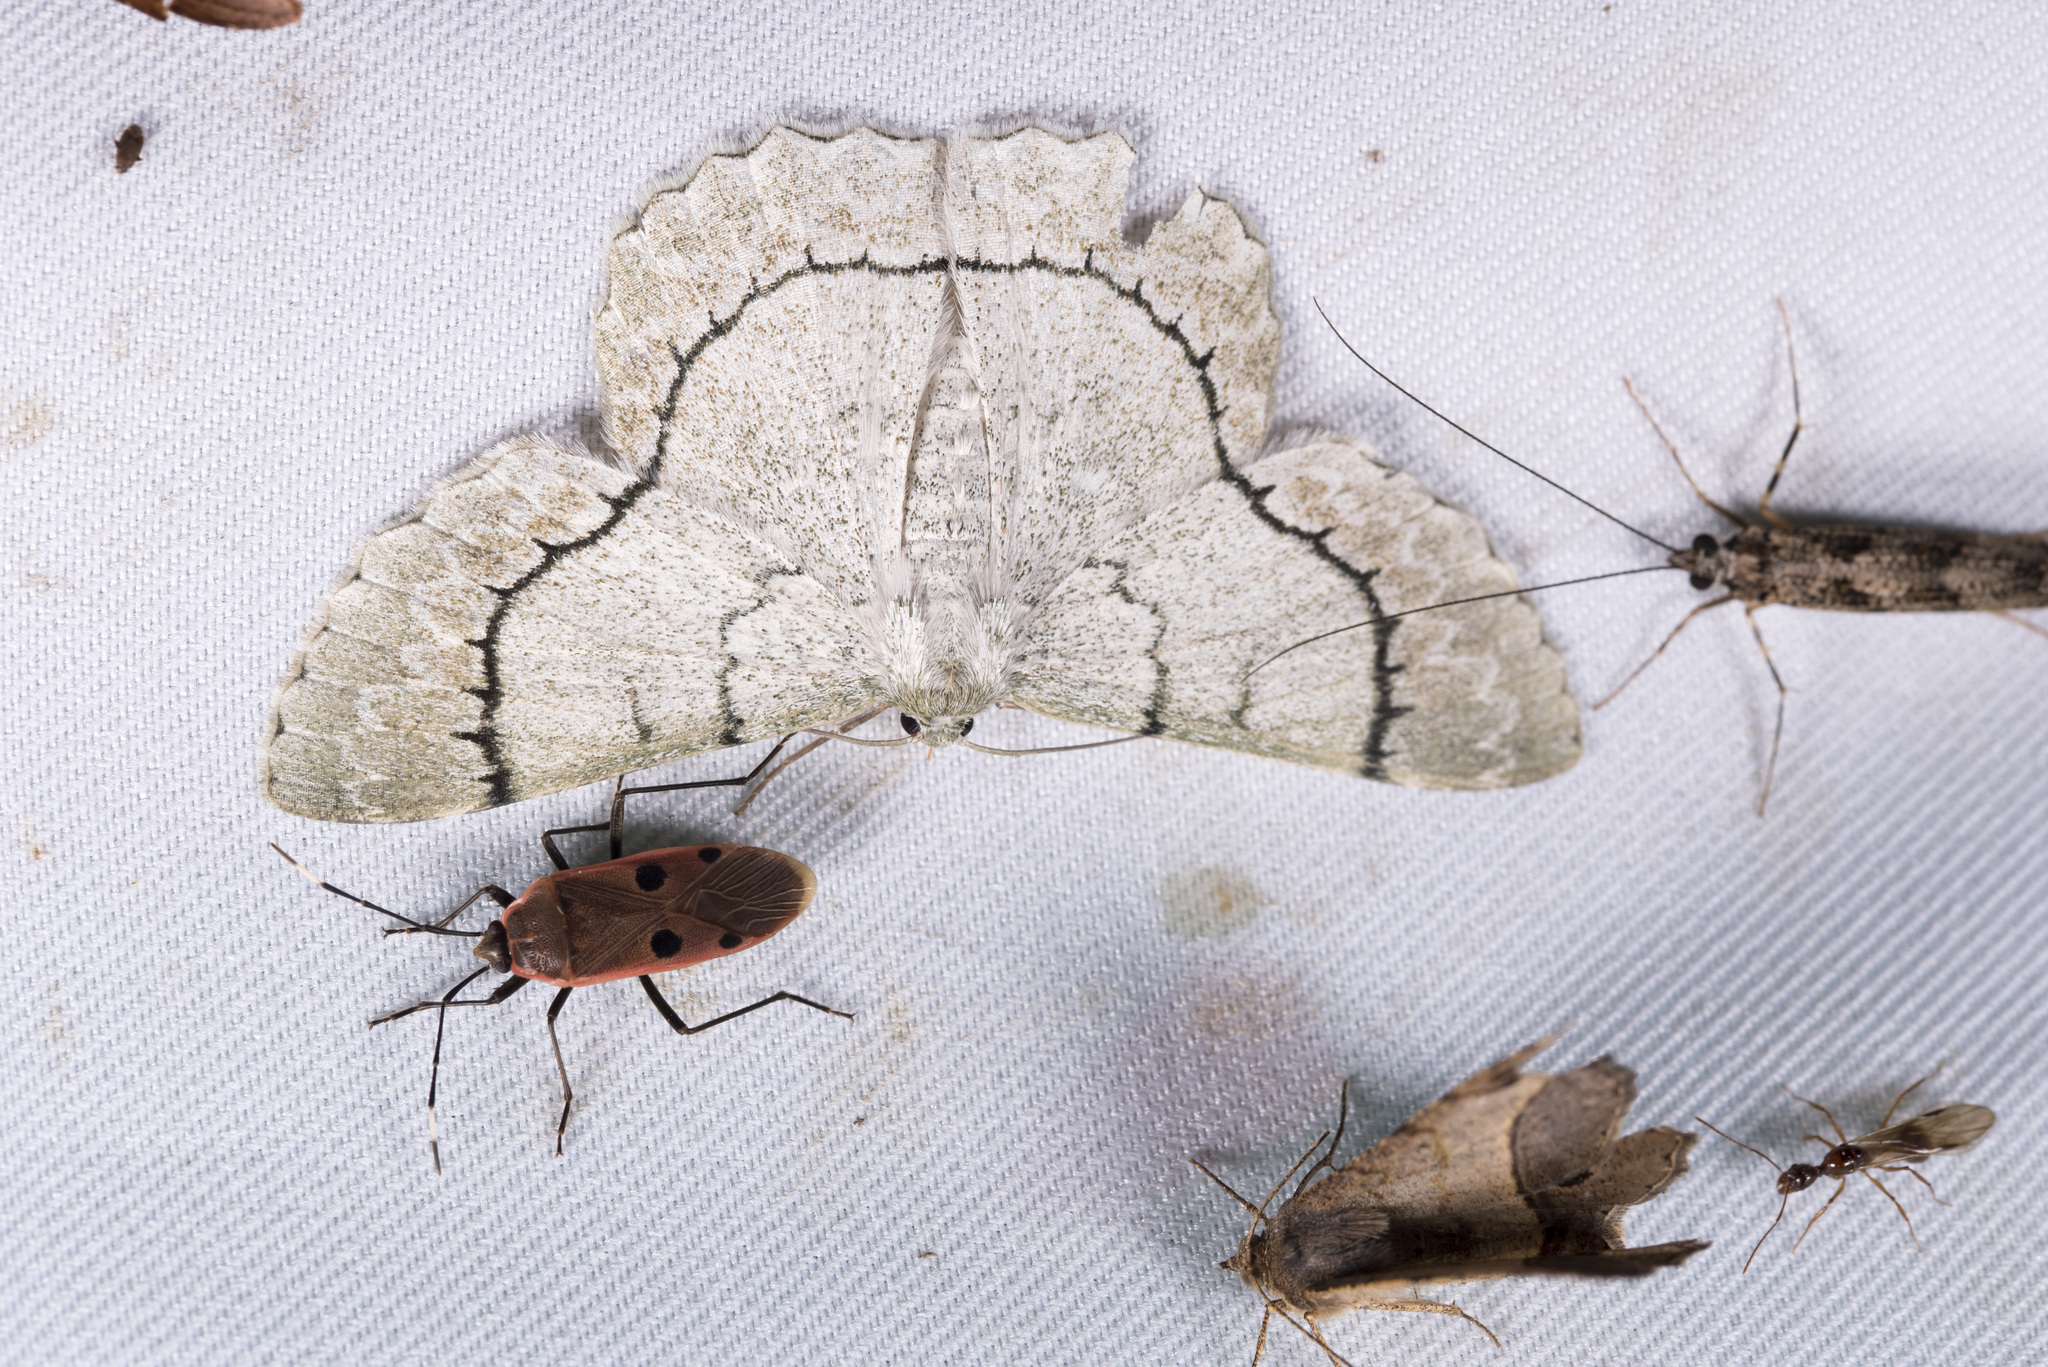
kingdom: Animalia
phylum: Arthropoda
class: Insecta
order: Lepidoptera
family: Geometridae
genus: Pingasa
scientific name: Pingasa alba
